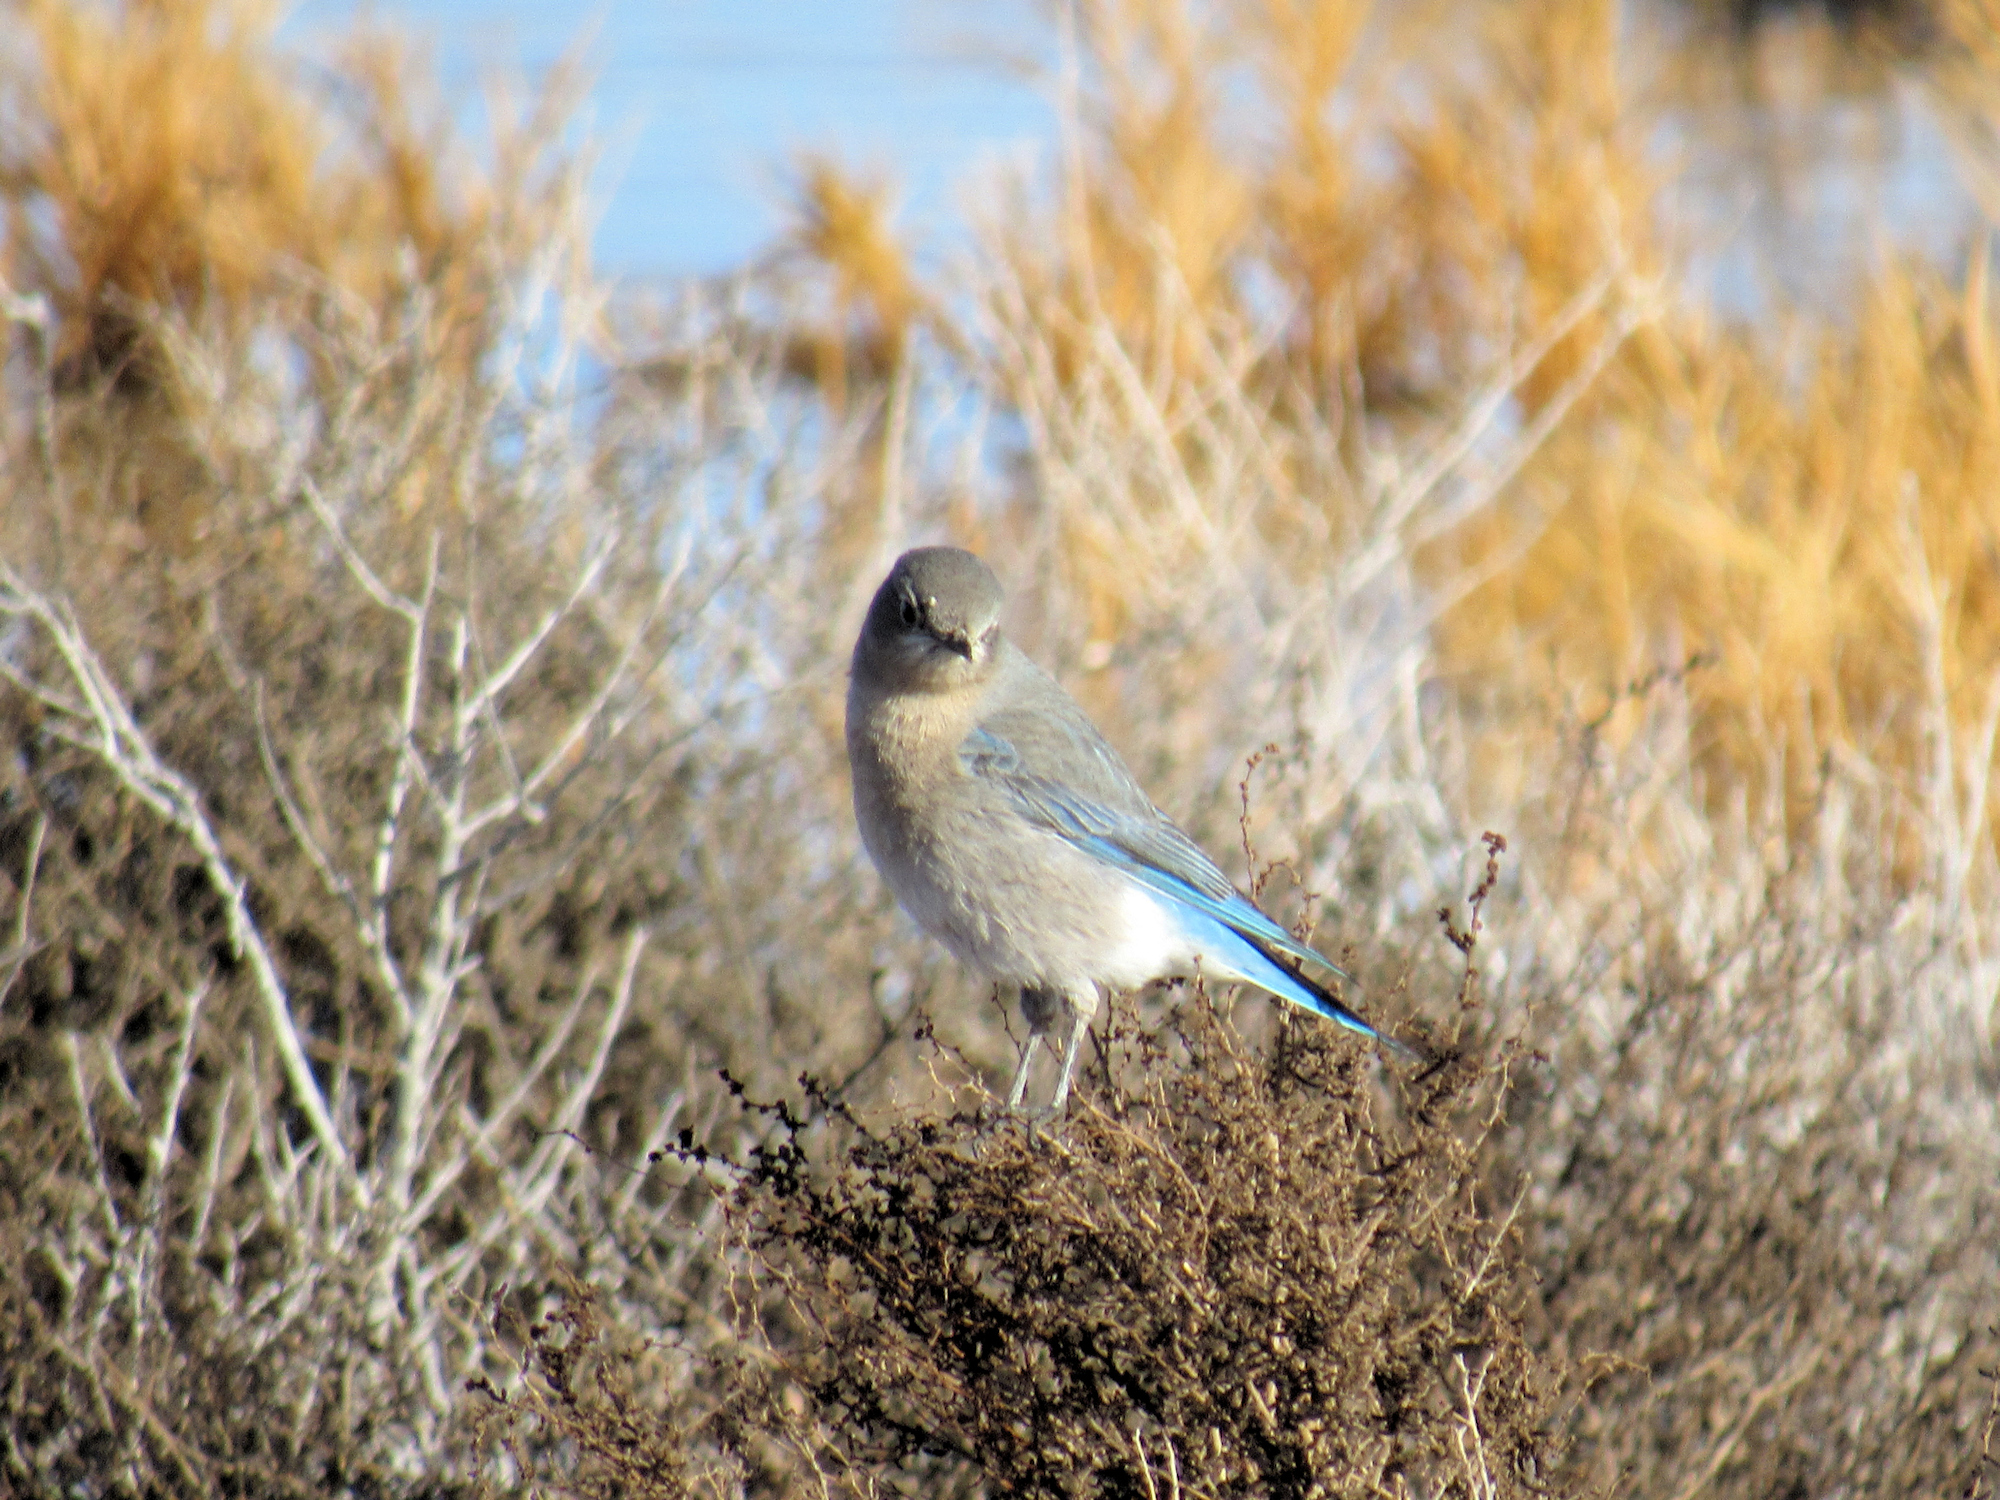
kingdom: Animalia
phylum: Chordata
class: Aves
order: Passeriformes
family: Turdidae
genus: Sialia
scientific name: Sialia currucoides
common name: Mountain bluebird
